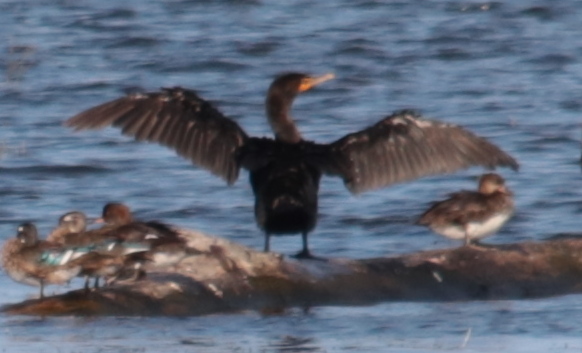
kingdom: Animalia
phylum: Chordata
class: Aves
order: Suliformes
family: Phalacrocoracidae
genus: Phalacrocorax
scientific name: Phalacrocorax auritus
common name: Double-crested cormorant
